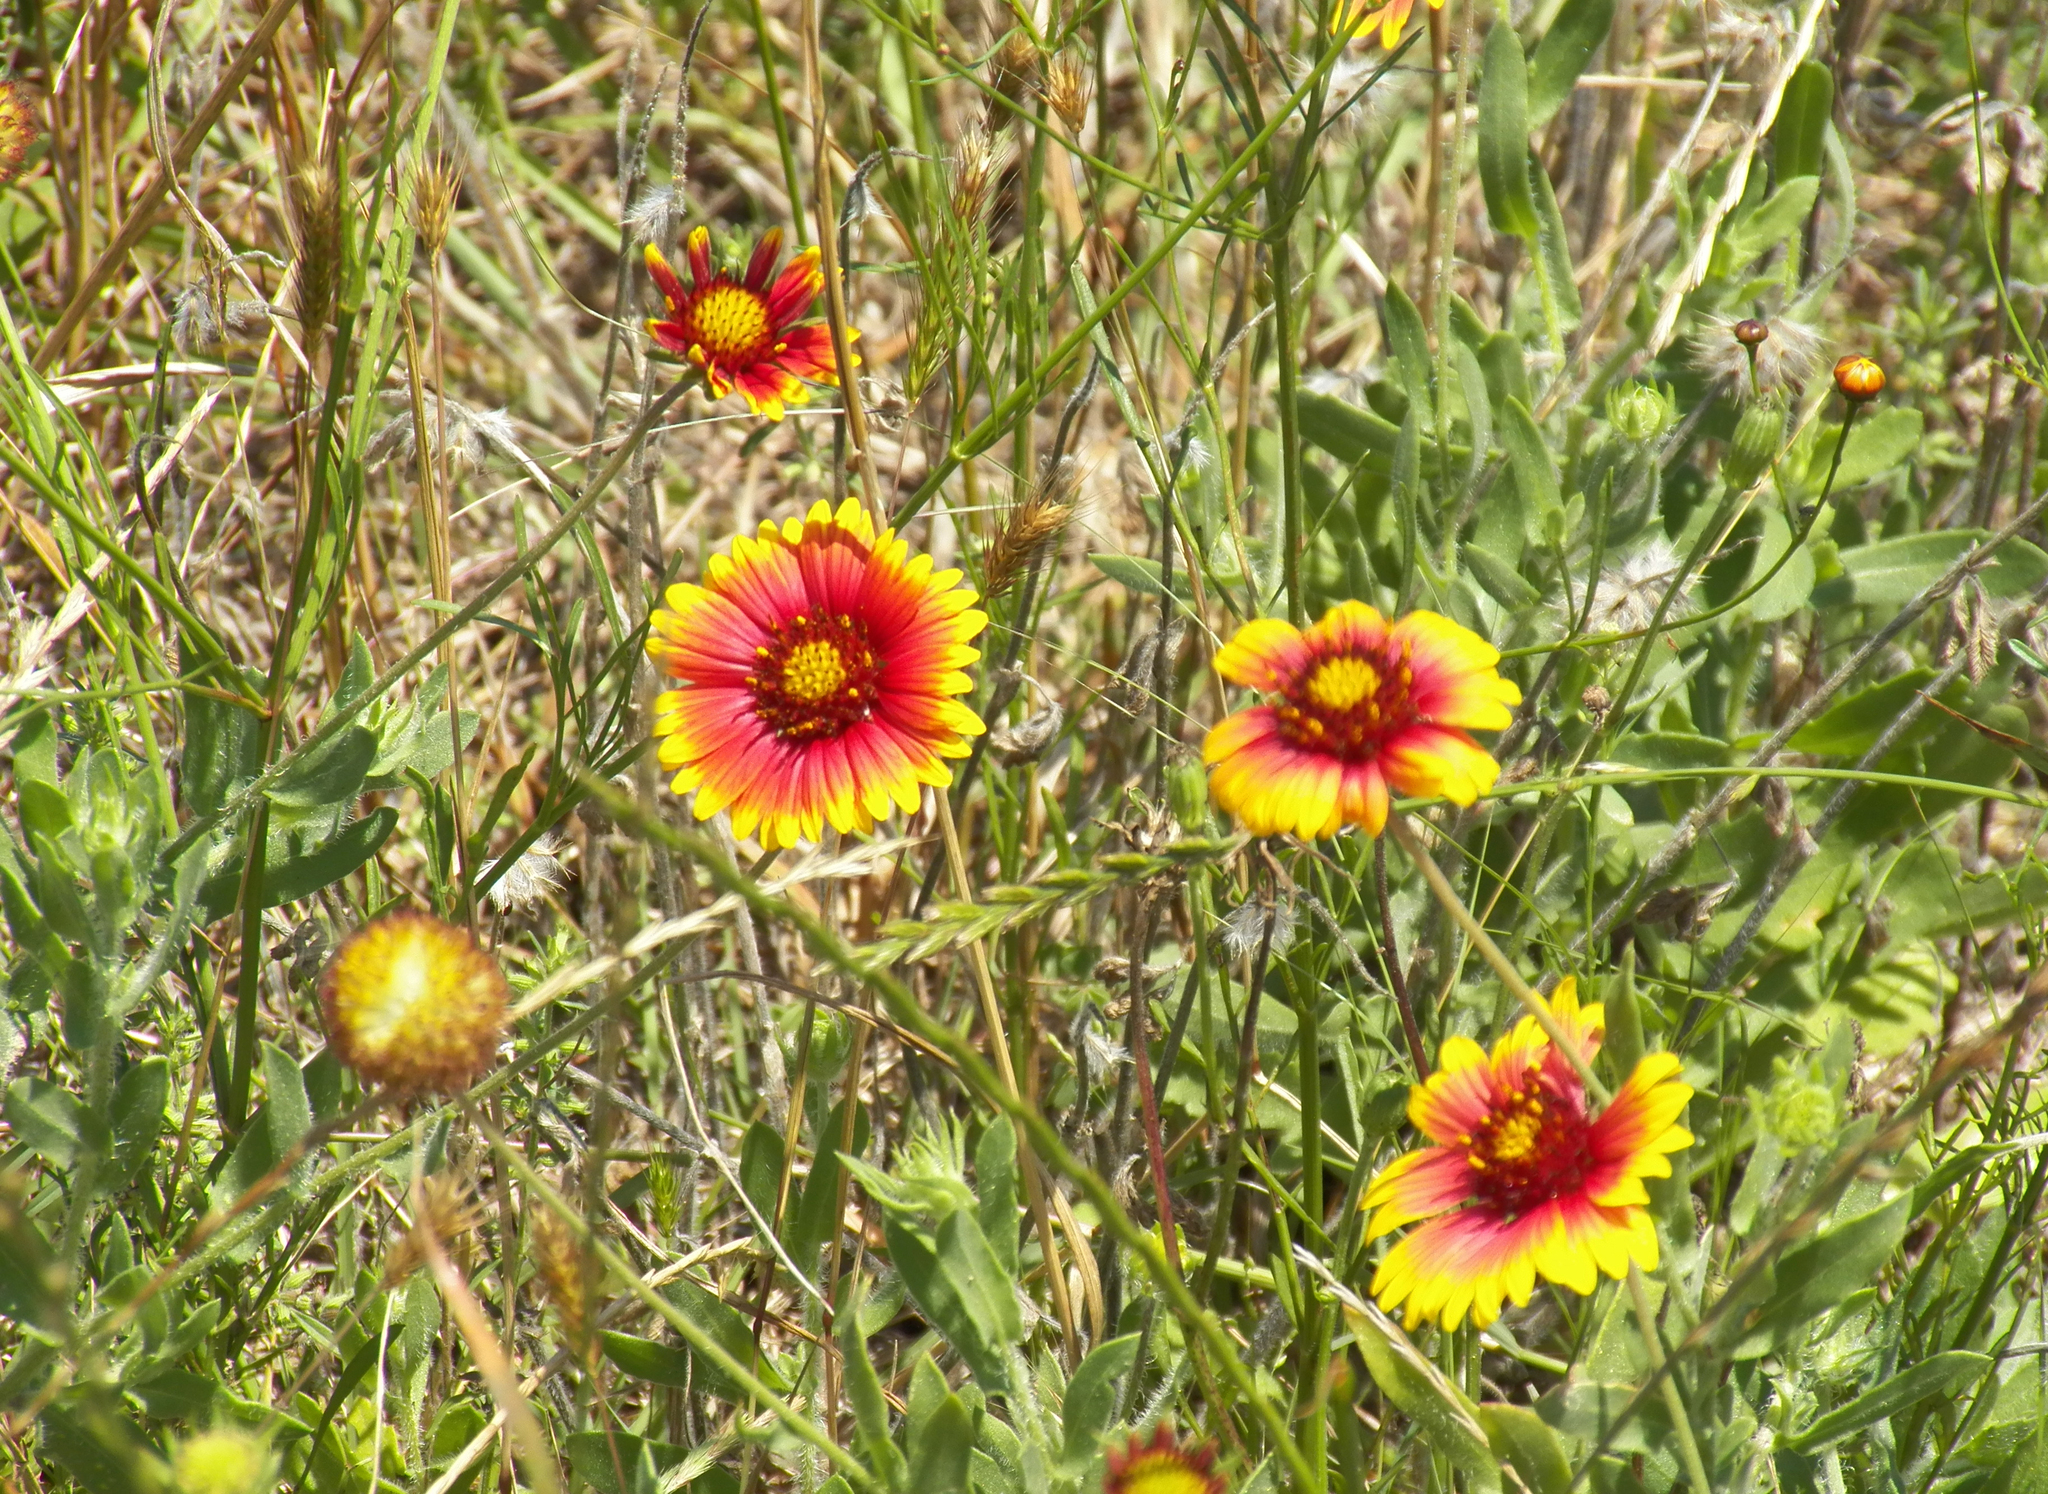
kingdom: Plantae
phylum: Tracheophyta
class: Magnoliopsida
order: Asterales
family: Asteraceae
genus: Gaillardia
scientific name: Gaillardia pulchella
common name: Firewheel
